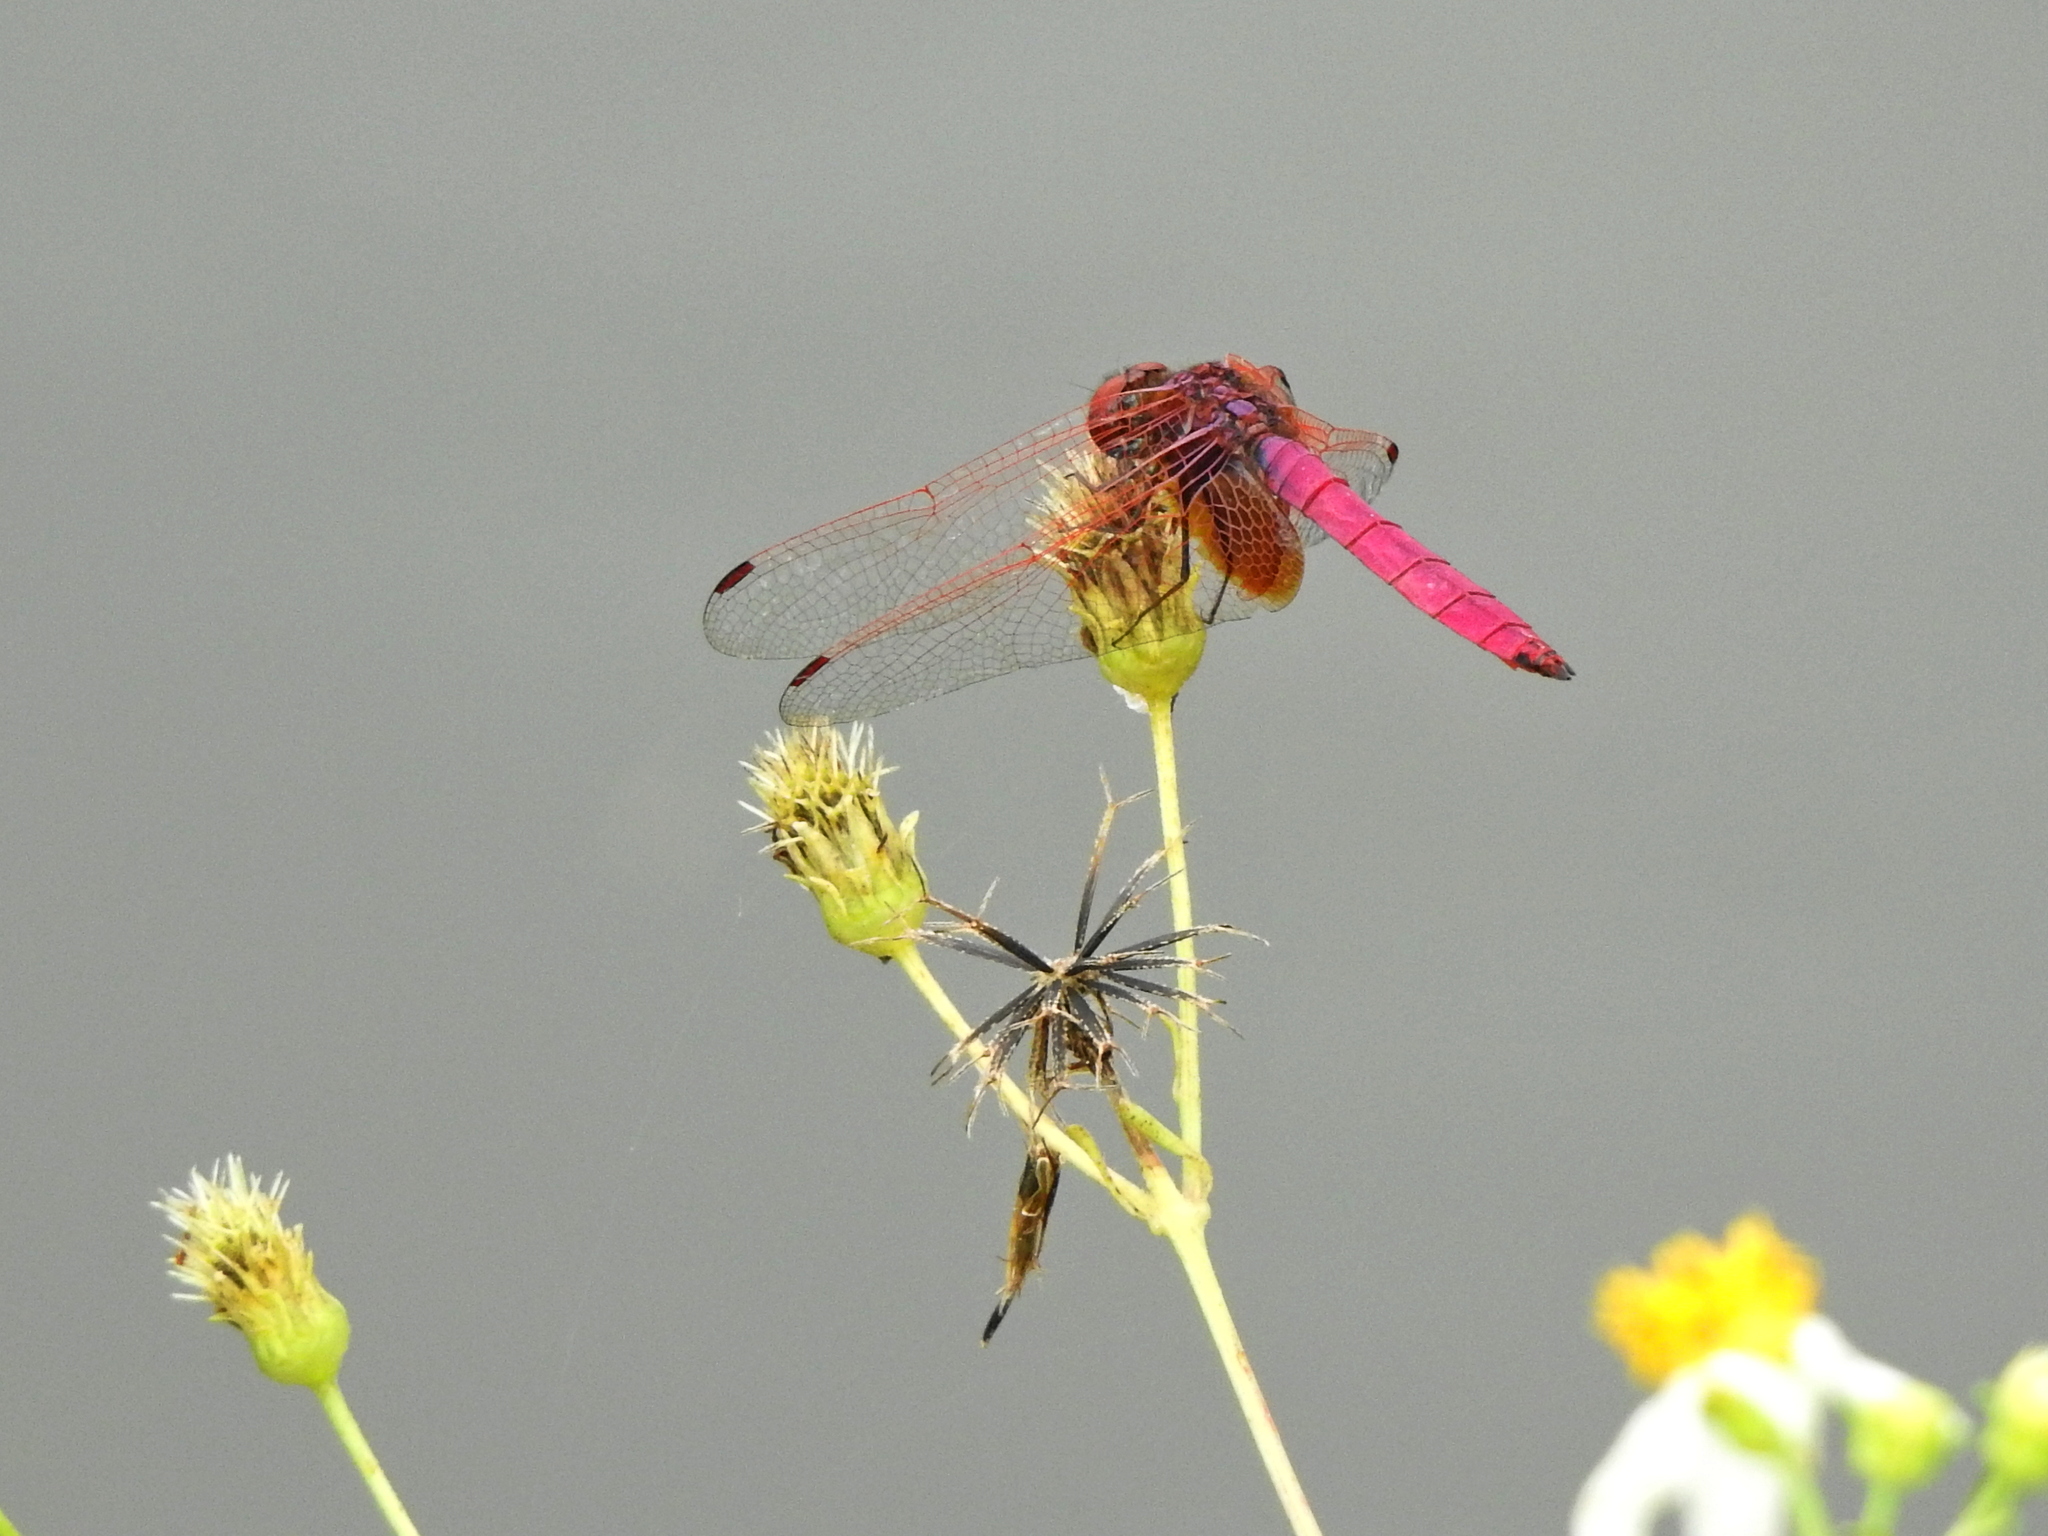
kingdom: Animalia
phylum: Arthropoda
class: Insecta
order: Odonata
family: Libellulidae
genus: Trithemis
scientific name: Trithemis aurora
